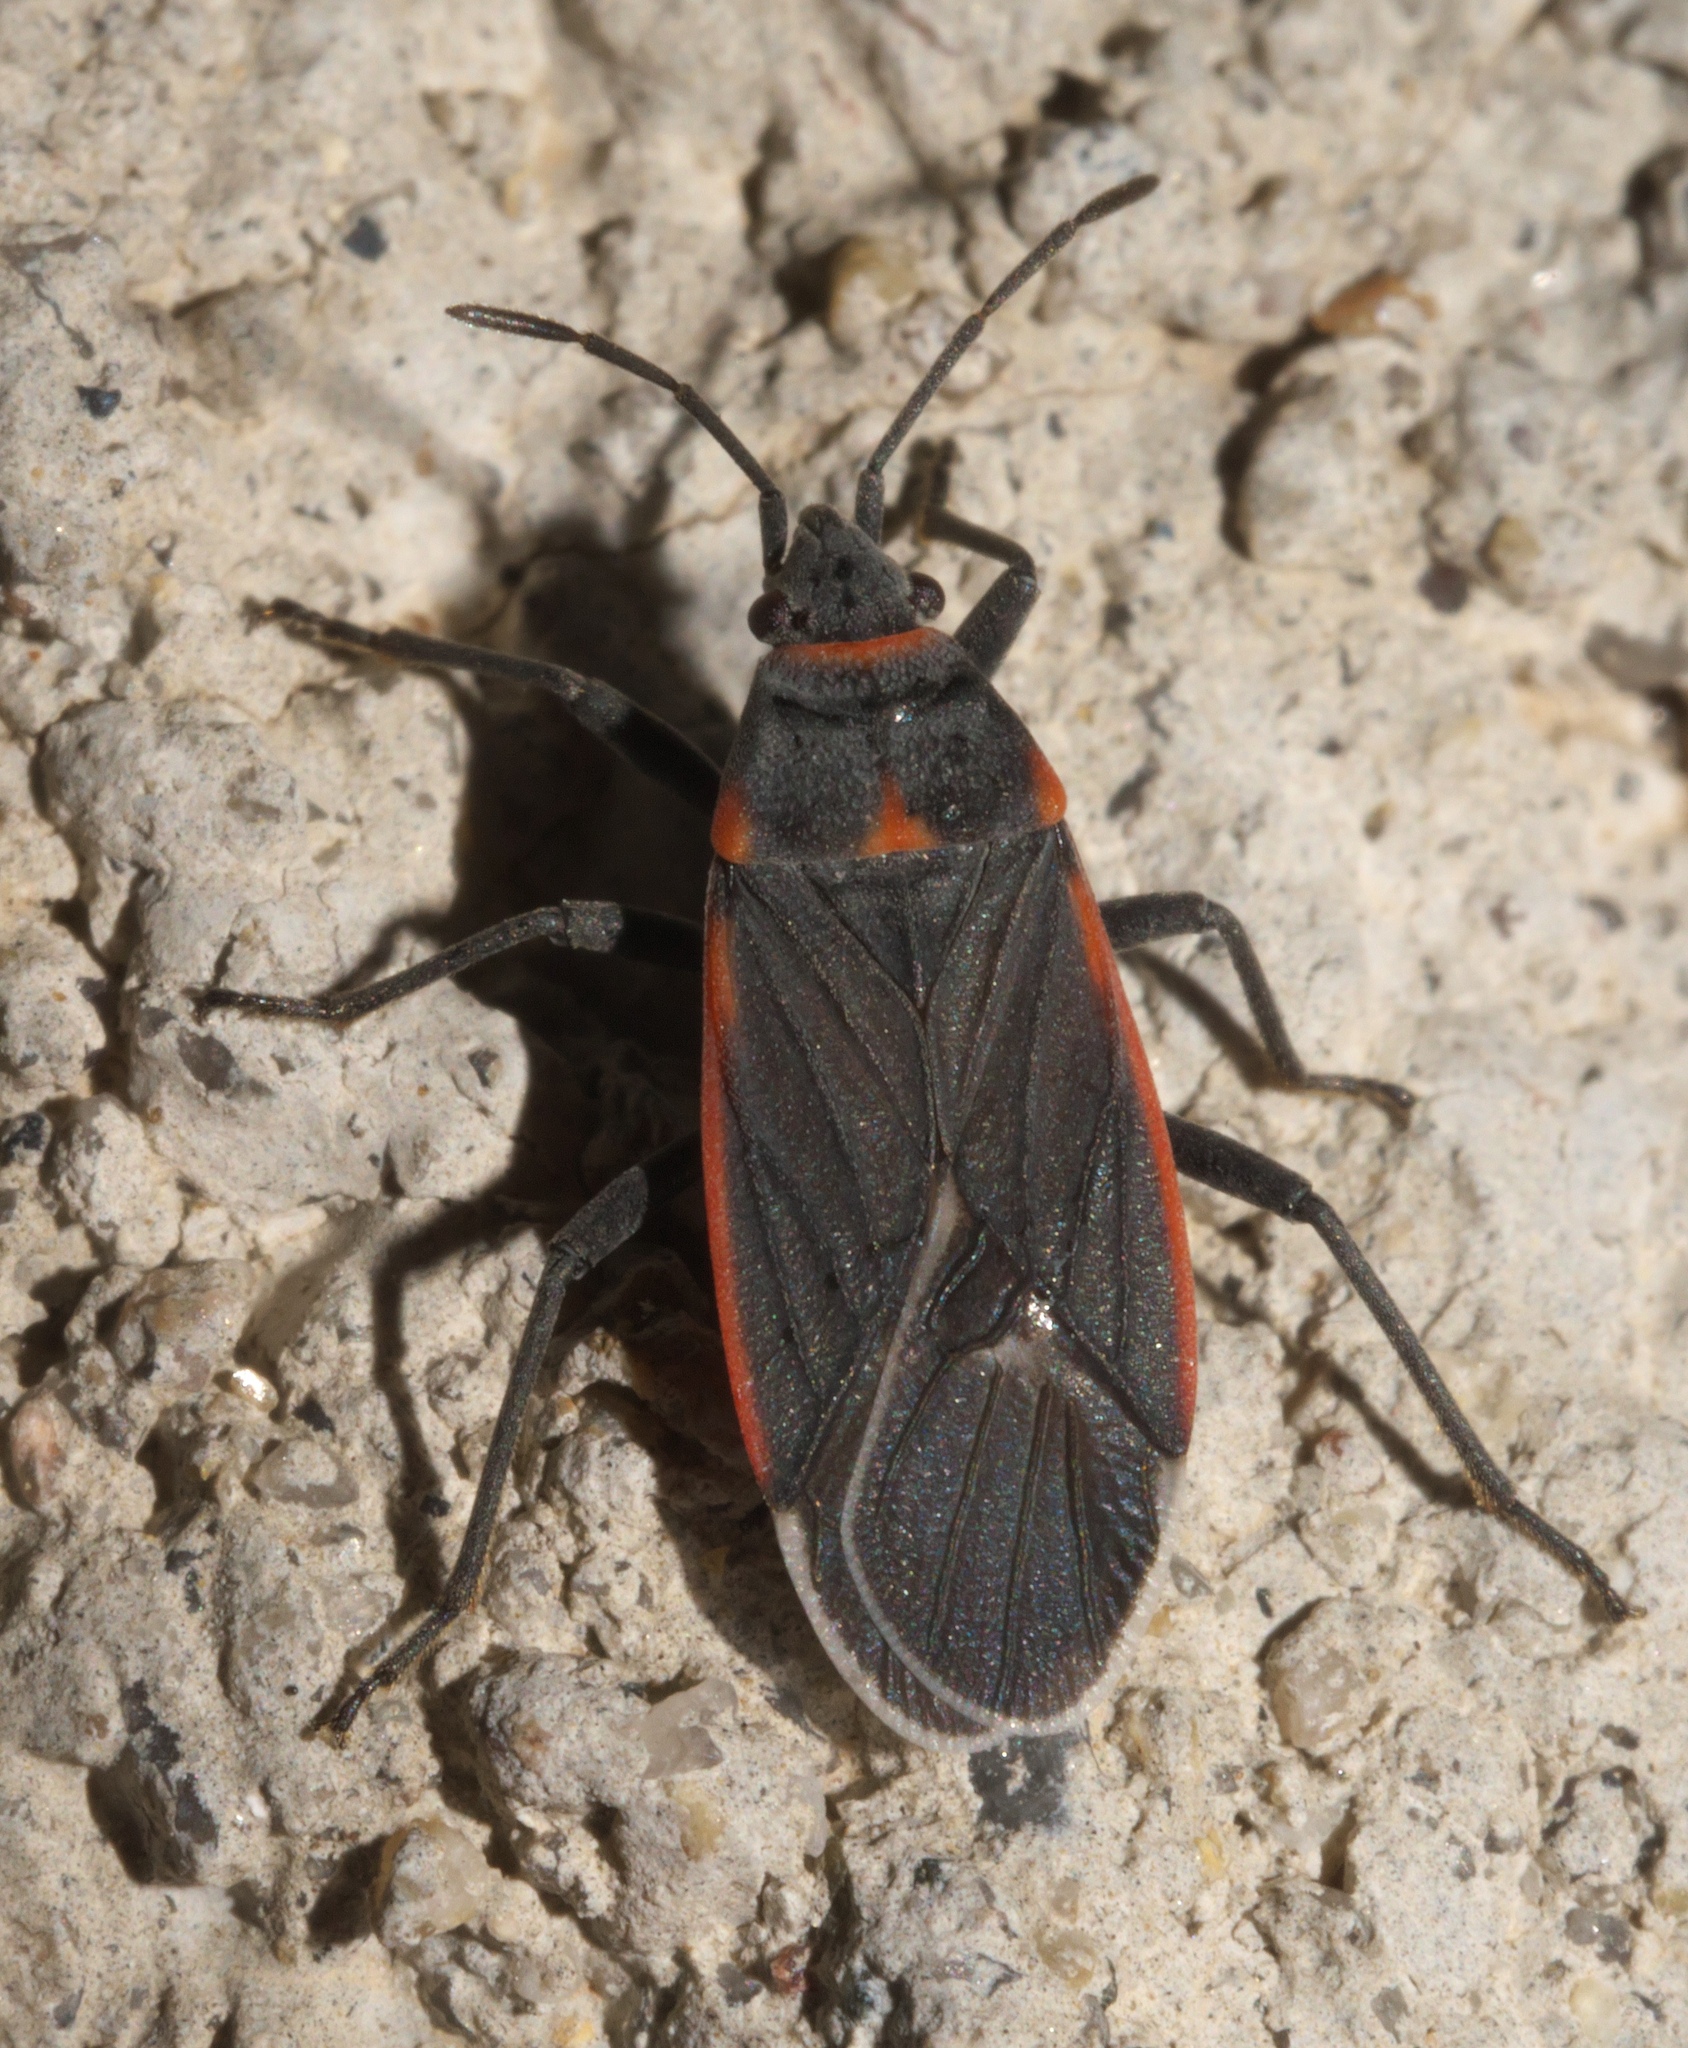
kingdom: Animalia
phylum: Arthropoda
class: Insecta
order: Hemiptera
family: Lygaeidae
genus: Melacoryphus
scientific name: Melacoryphus lateralis
